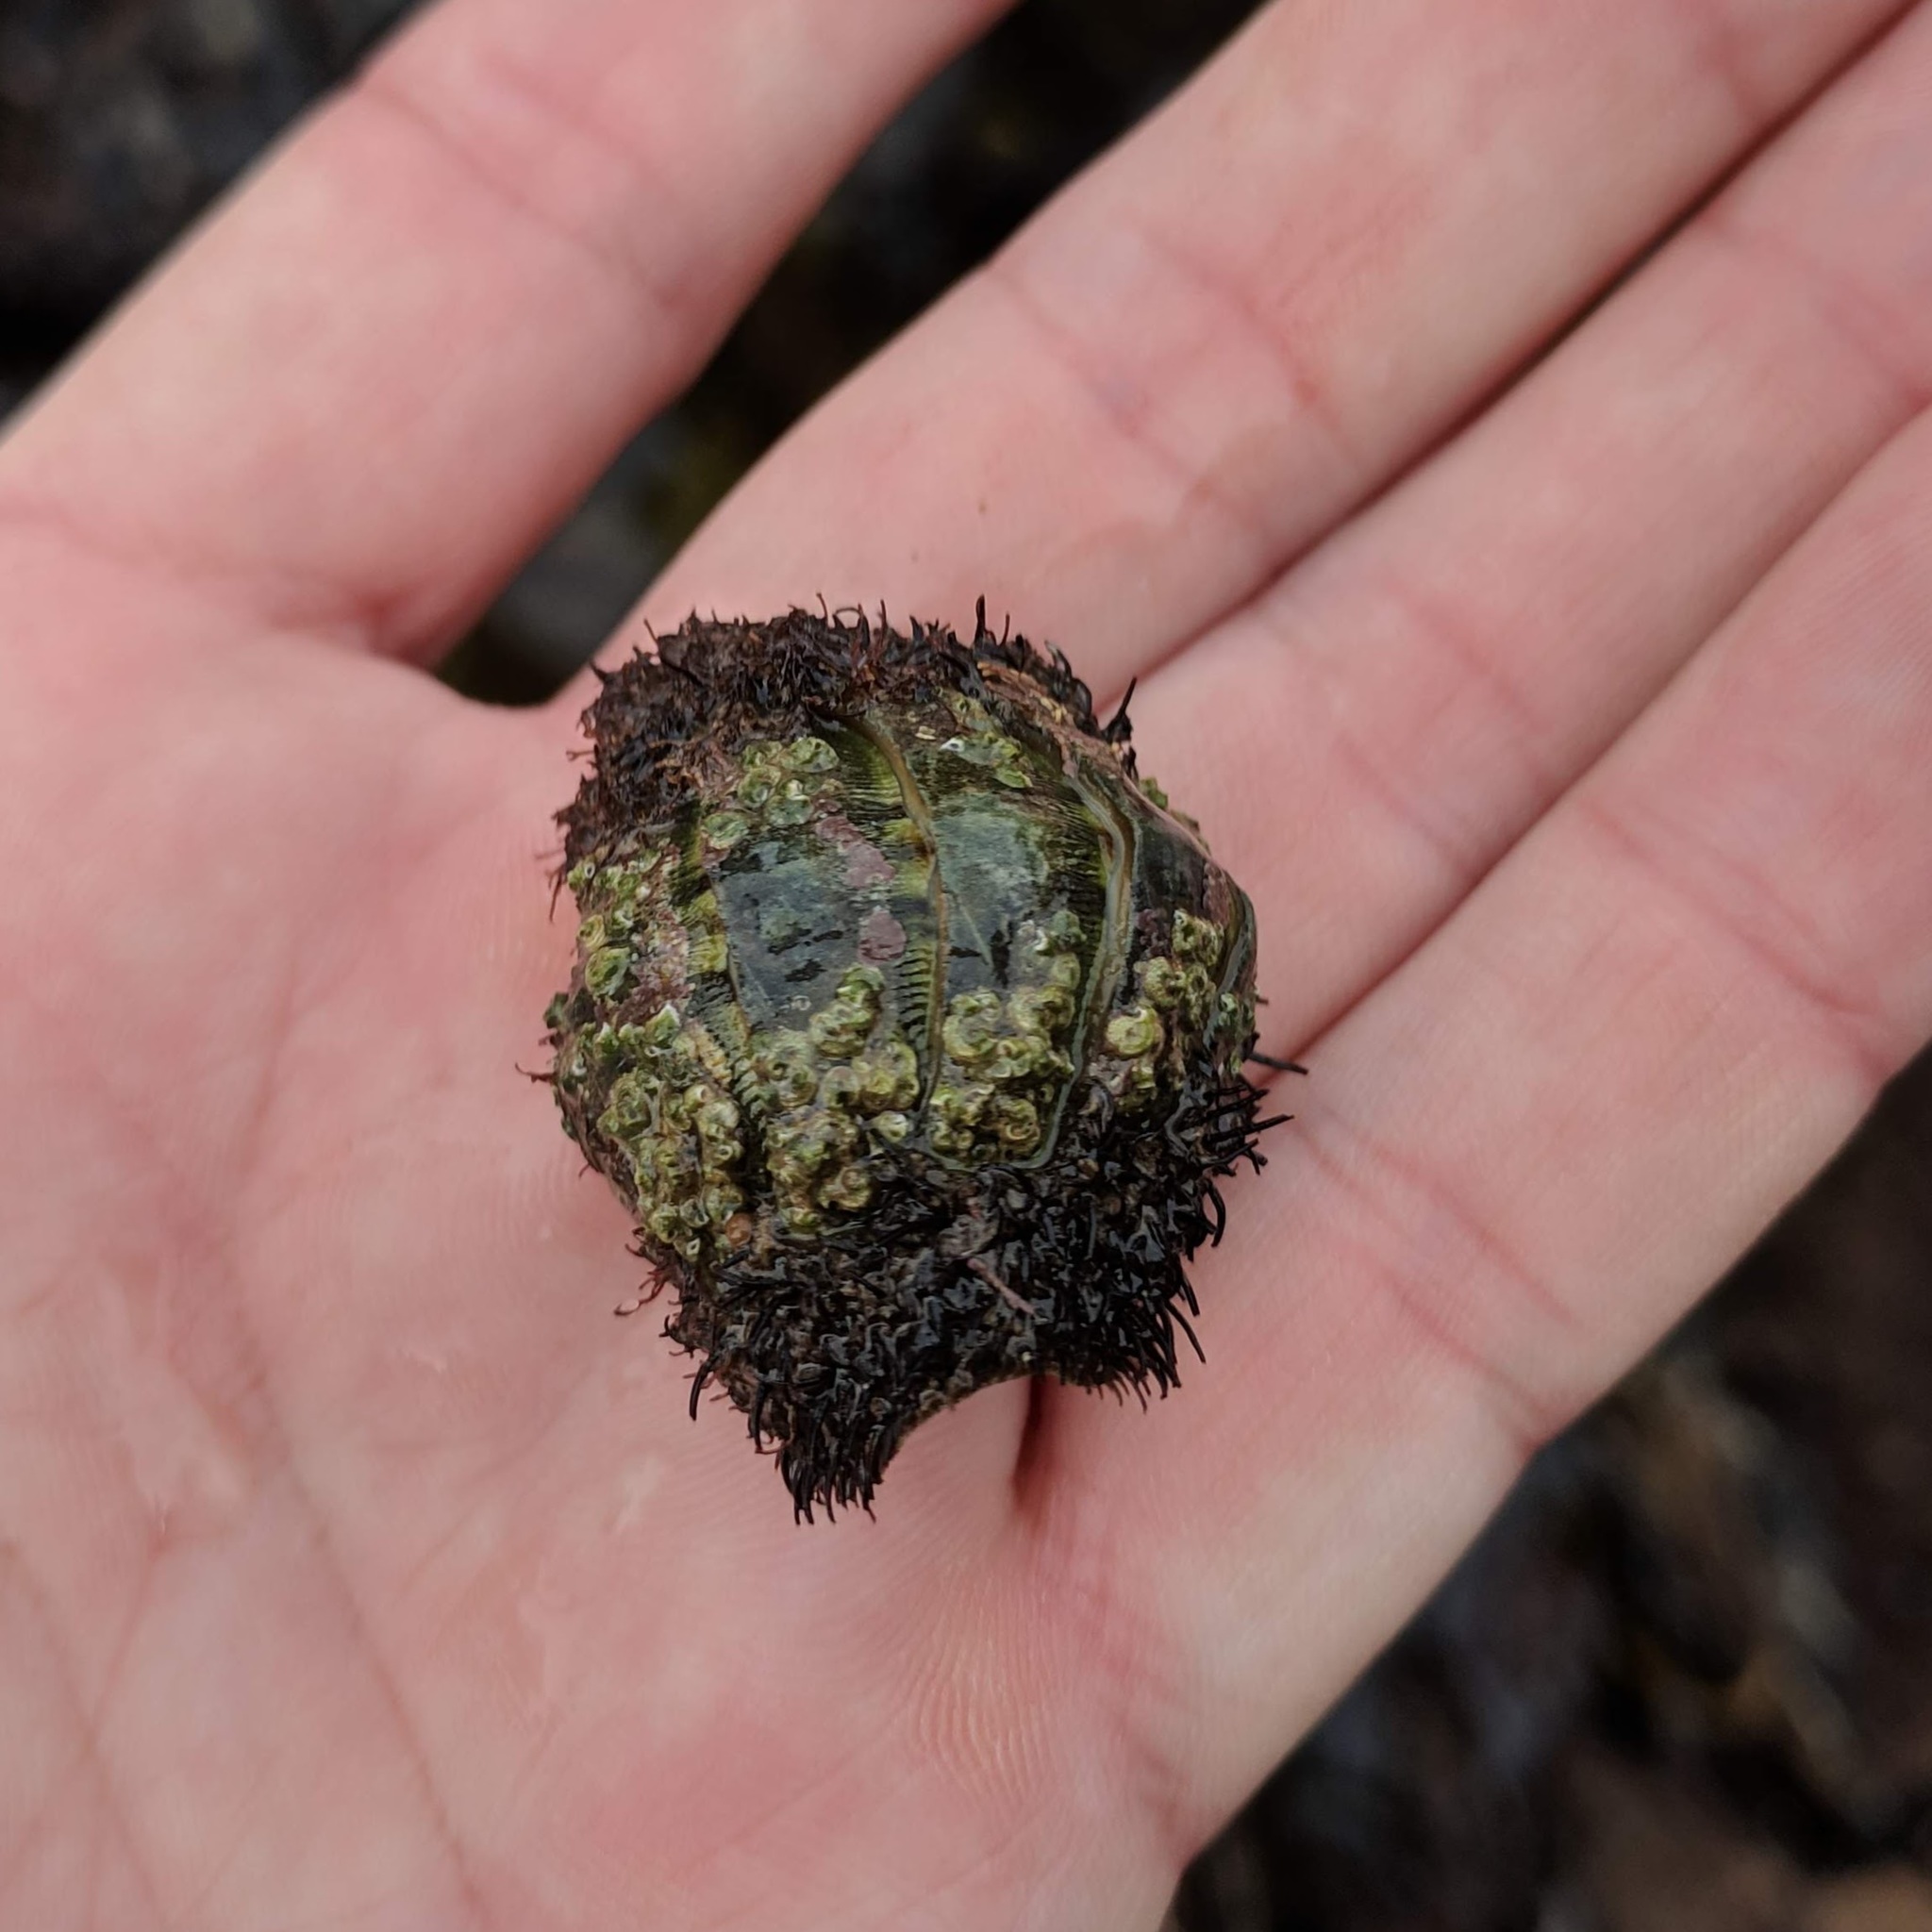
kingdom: Animalia
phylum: Mollusca
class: Polyplacophora
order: Chitonida
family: Mopaliidae
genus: Mopalia
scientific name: Mopalia muscosa
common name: Mossy chiton
